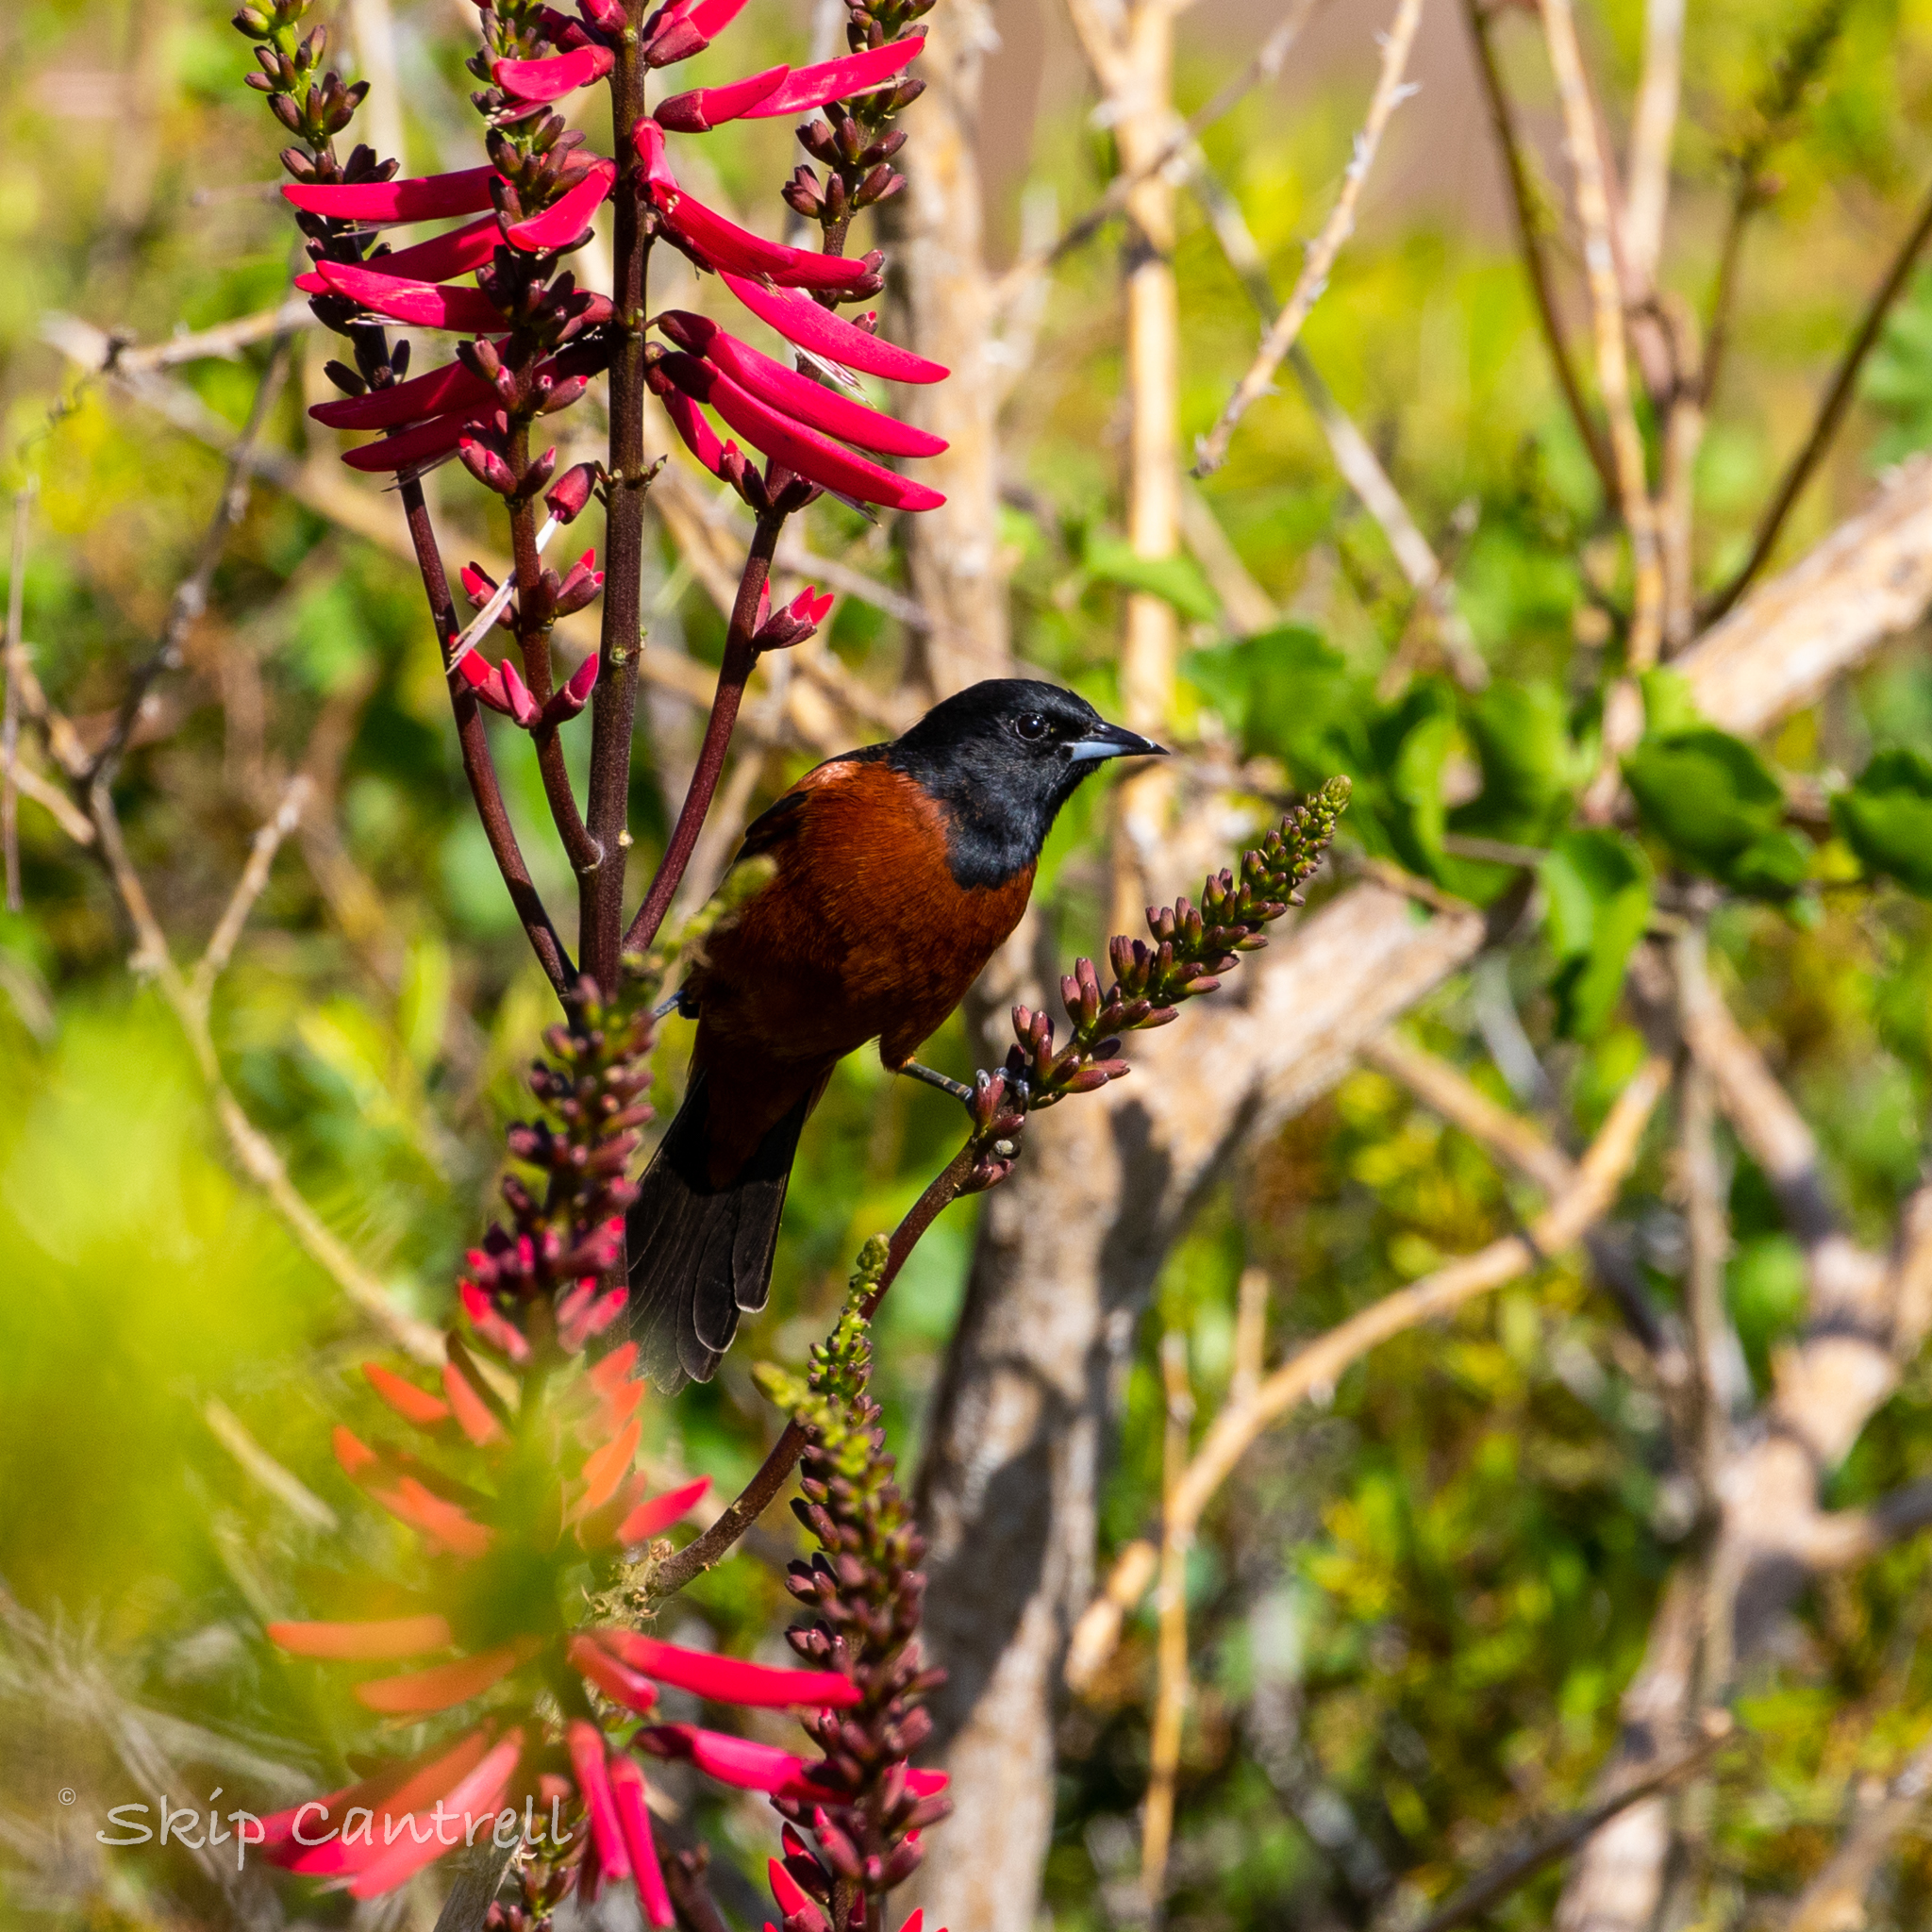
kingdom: Animalia
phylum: Chordata
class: Aves
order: Passeriformes
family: Icteridae
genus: Icterus
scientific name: Icterus spurius
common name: Orchard oriole
